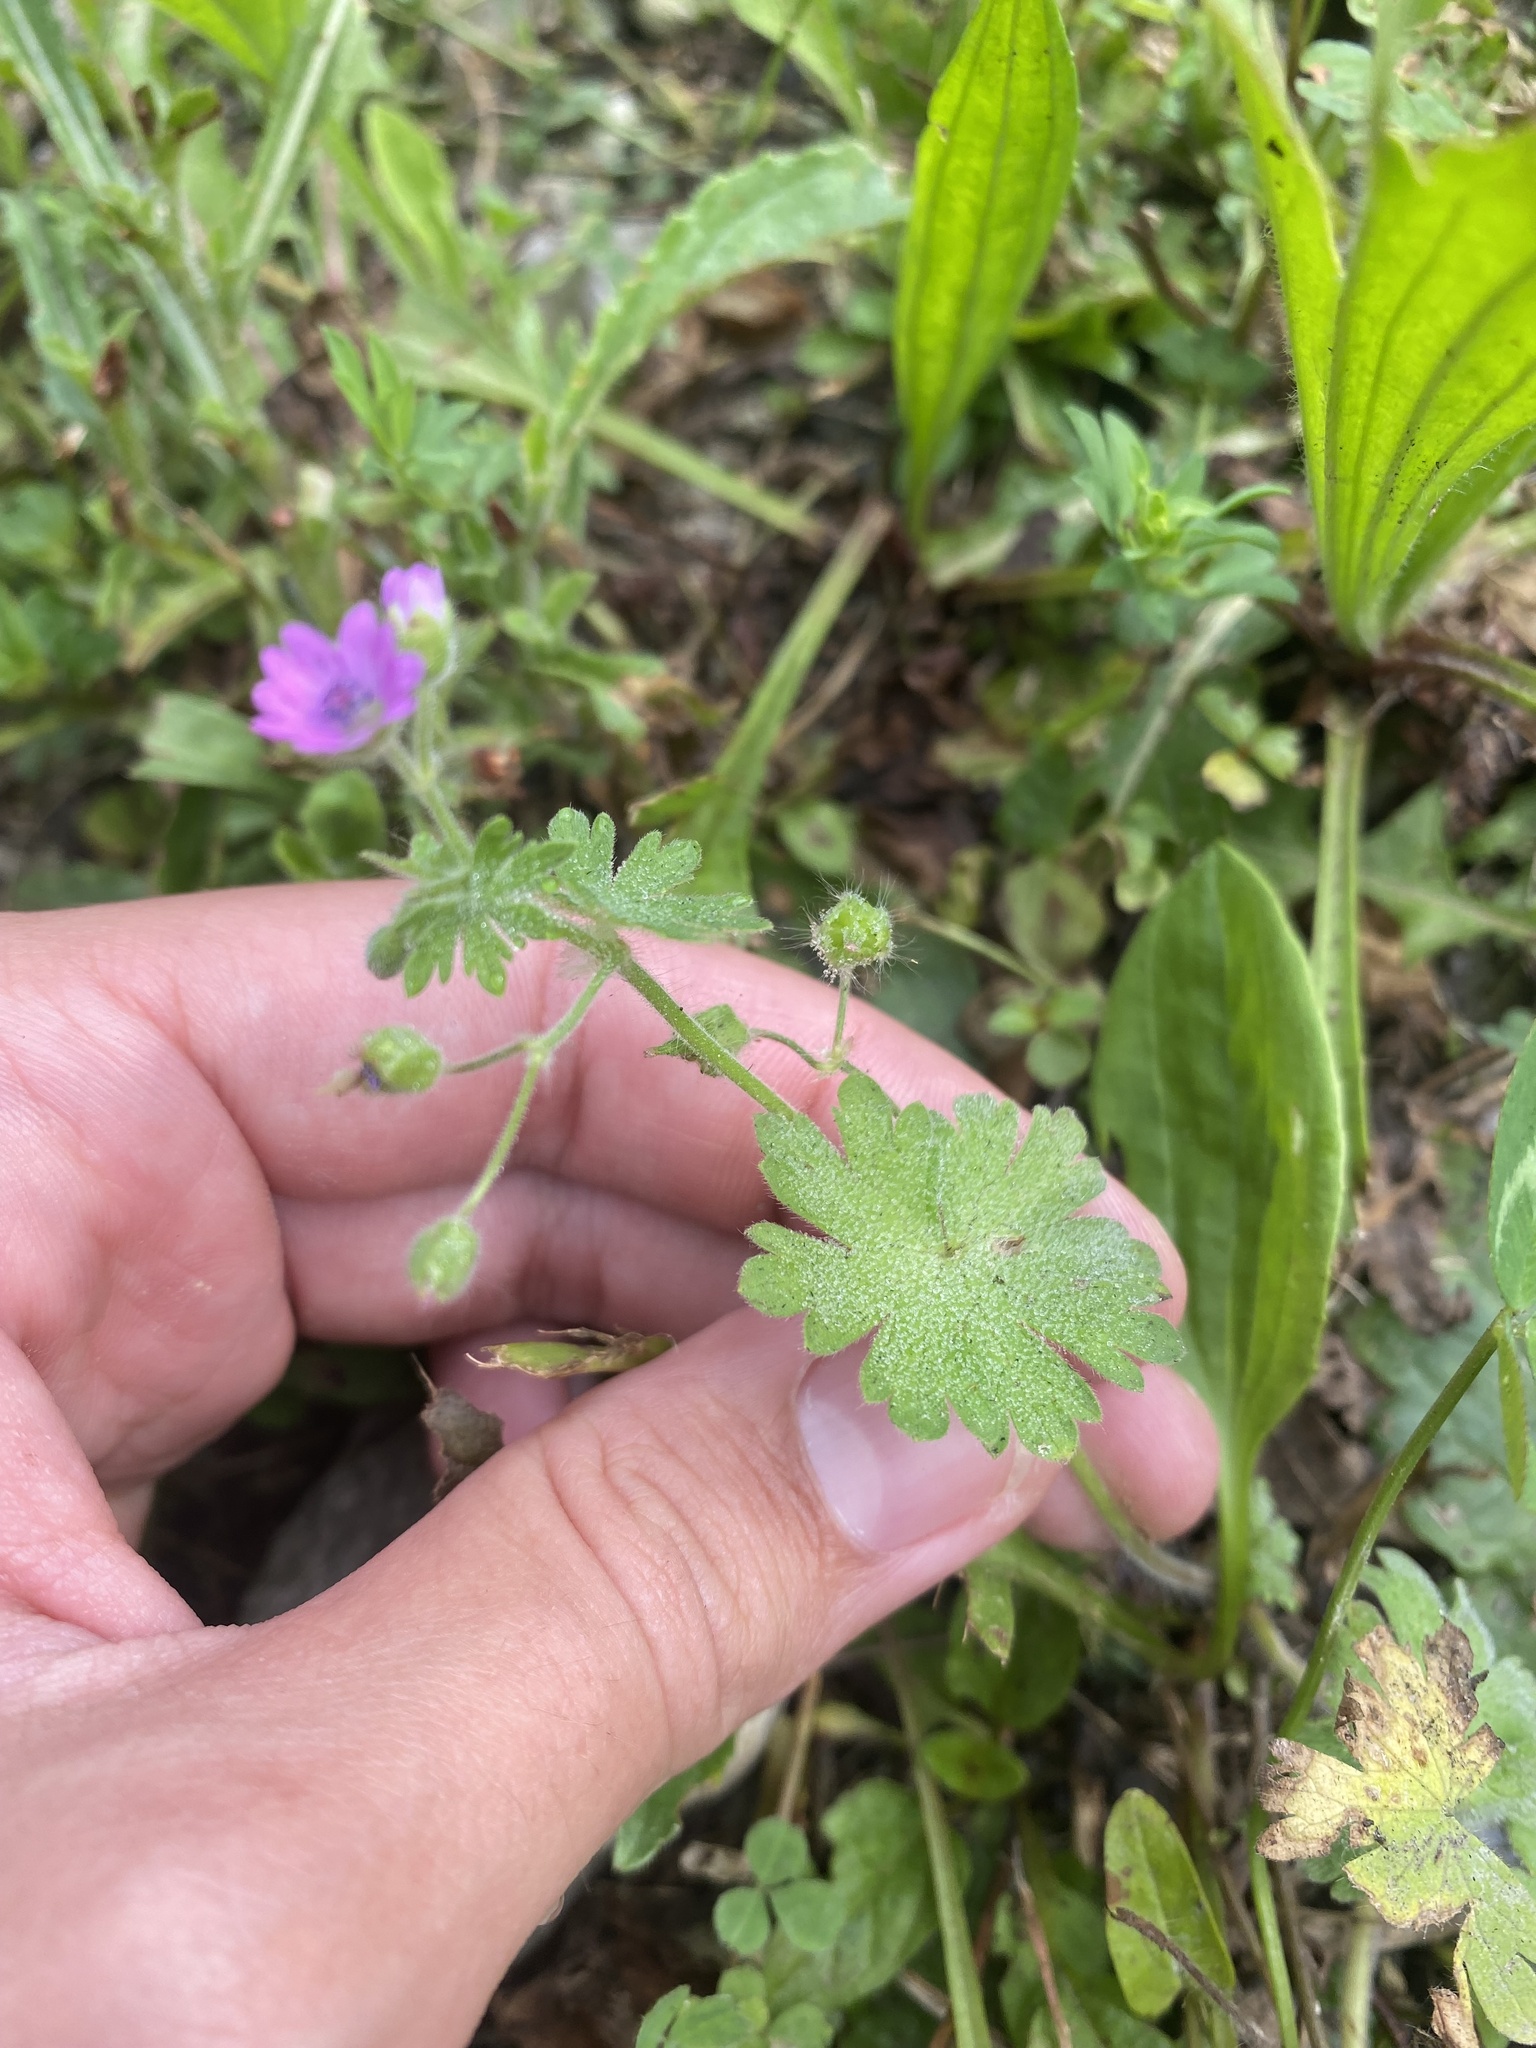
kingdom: Plantae
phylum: Tracheophyta
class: Magnoliopsida
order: Geraniales
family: Geraniaceae
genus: Geranium
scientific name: Geranium molle
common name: Dove's-foot crane's-bill
